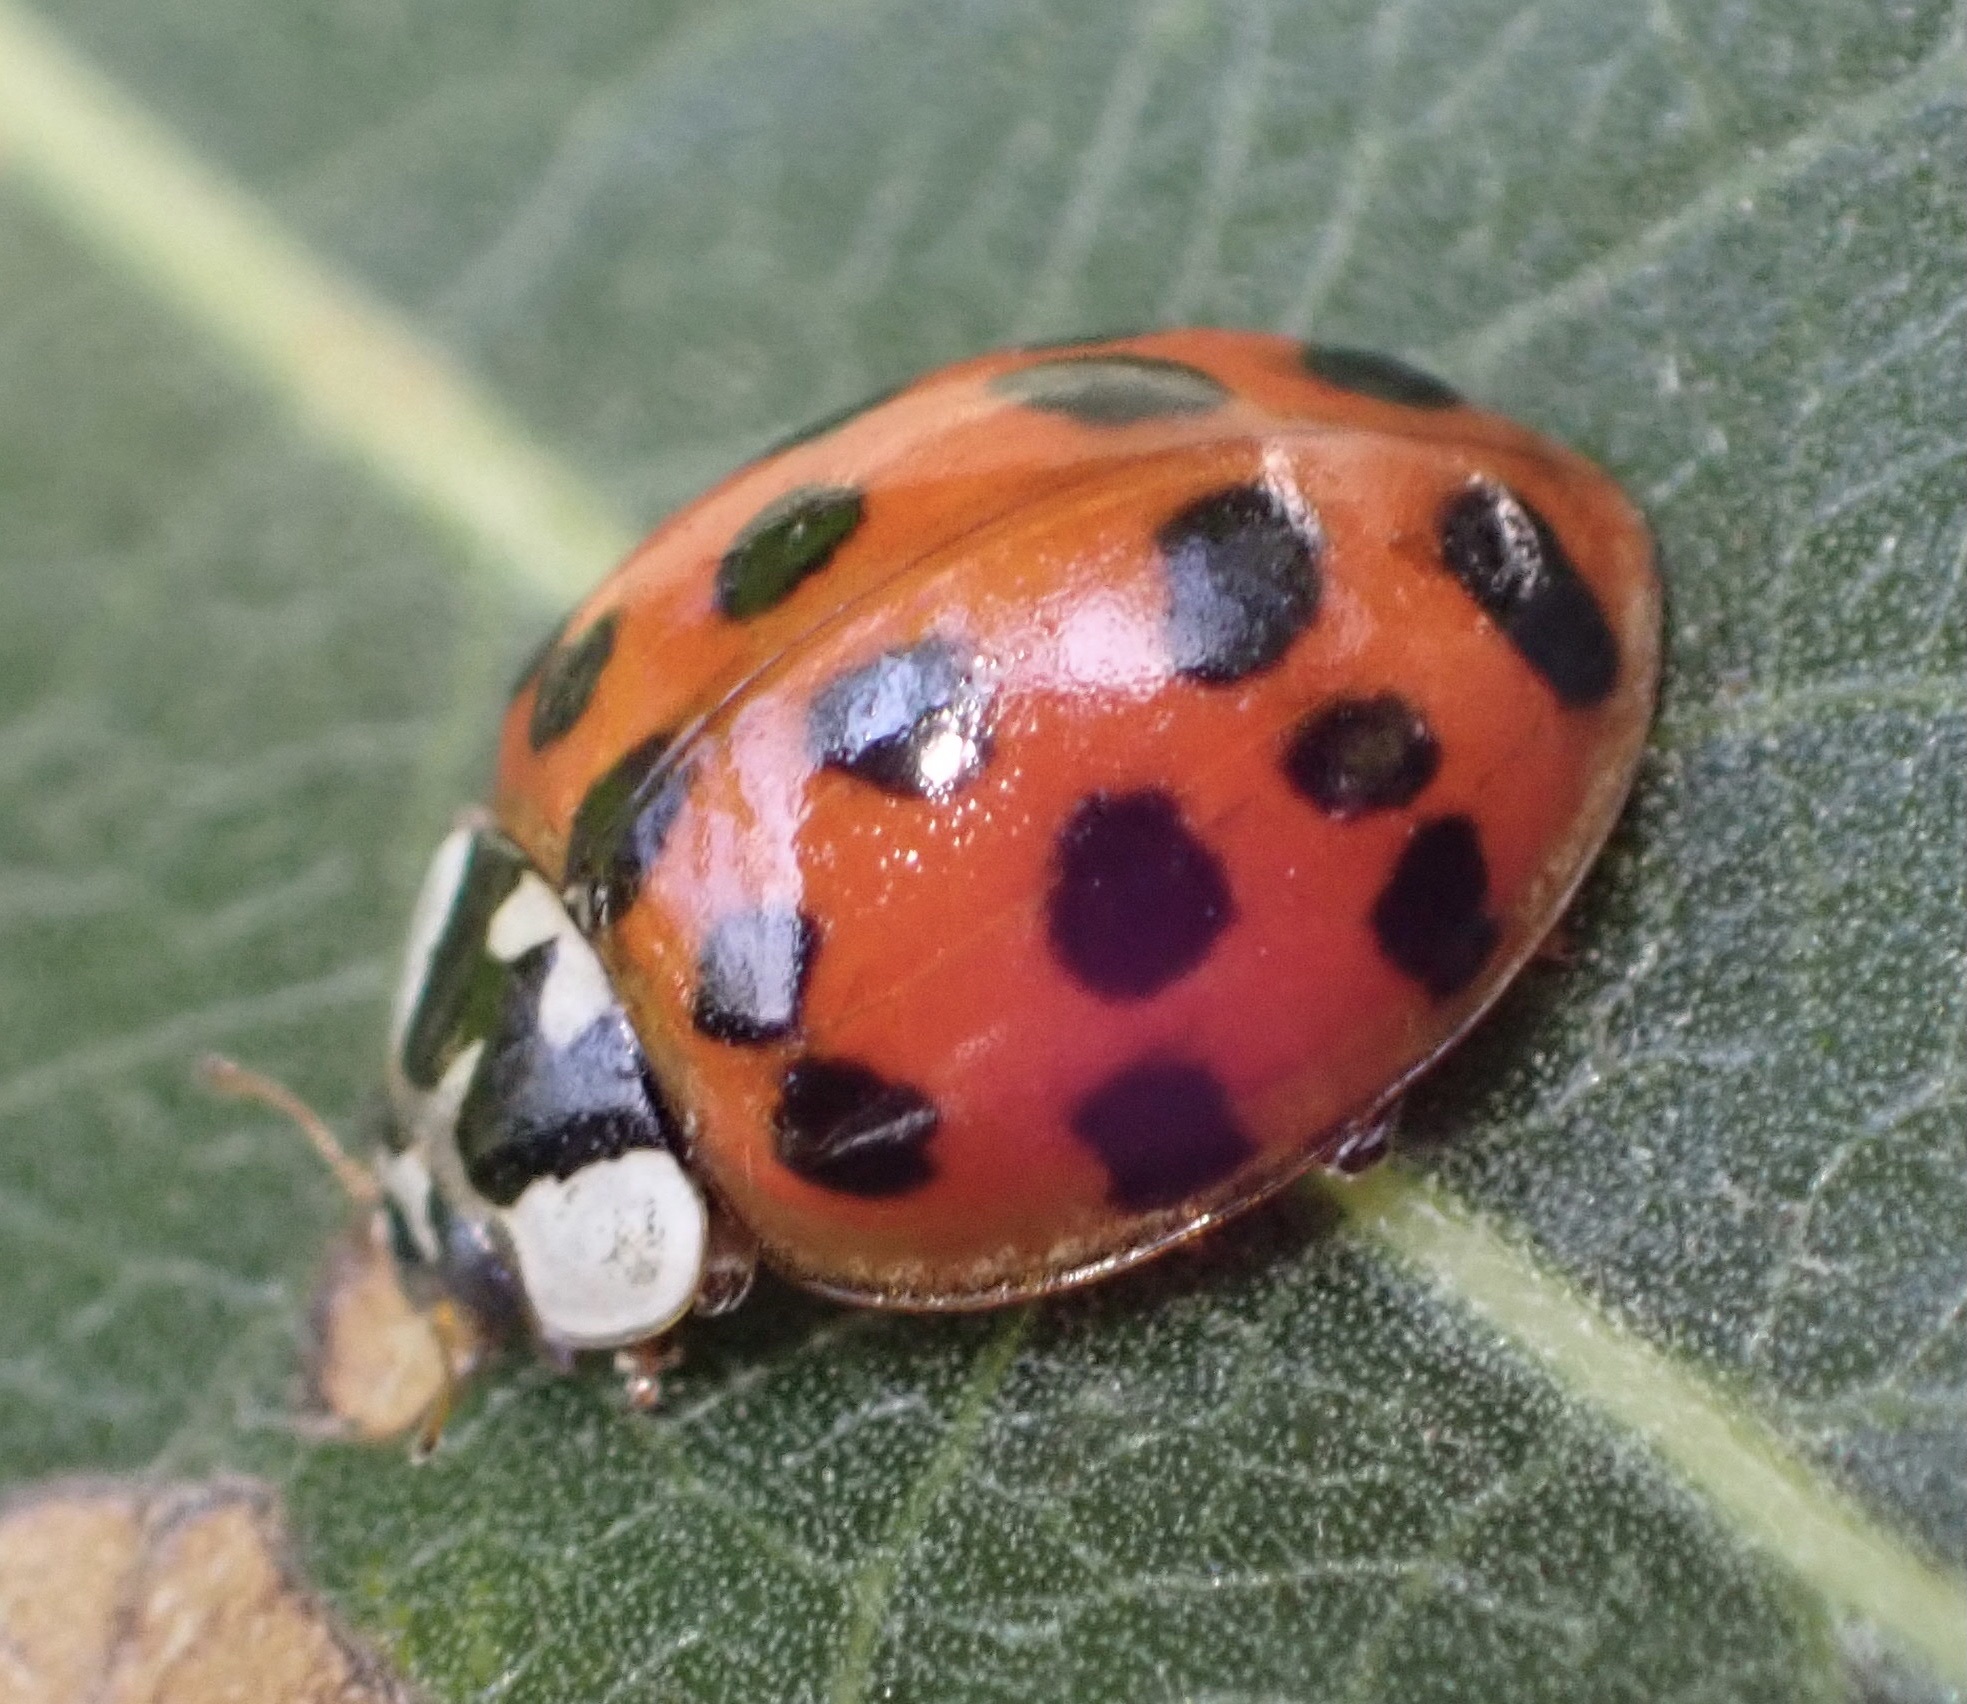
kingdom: Animalia
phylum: Arthropoda
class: Insecta
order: Coleoptera
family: Coccinellidae
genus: Harmonia
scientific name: Harmonia axyridis
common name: Harlequin ladybird
